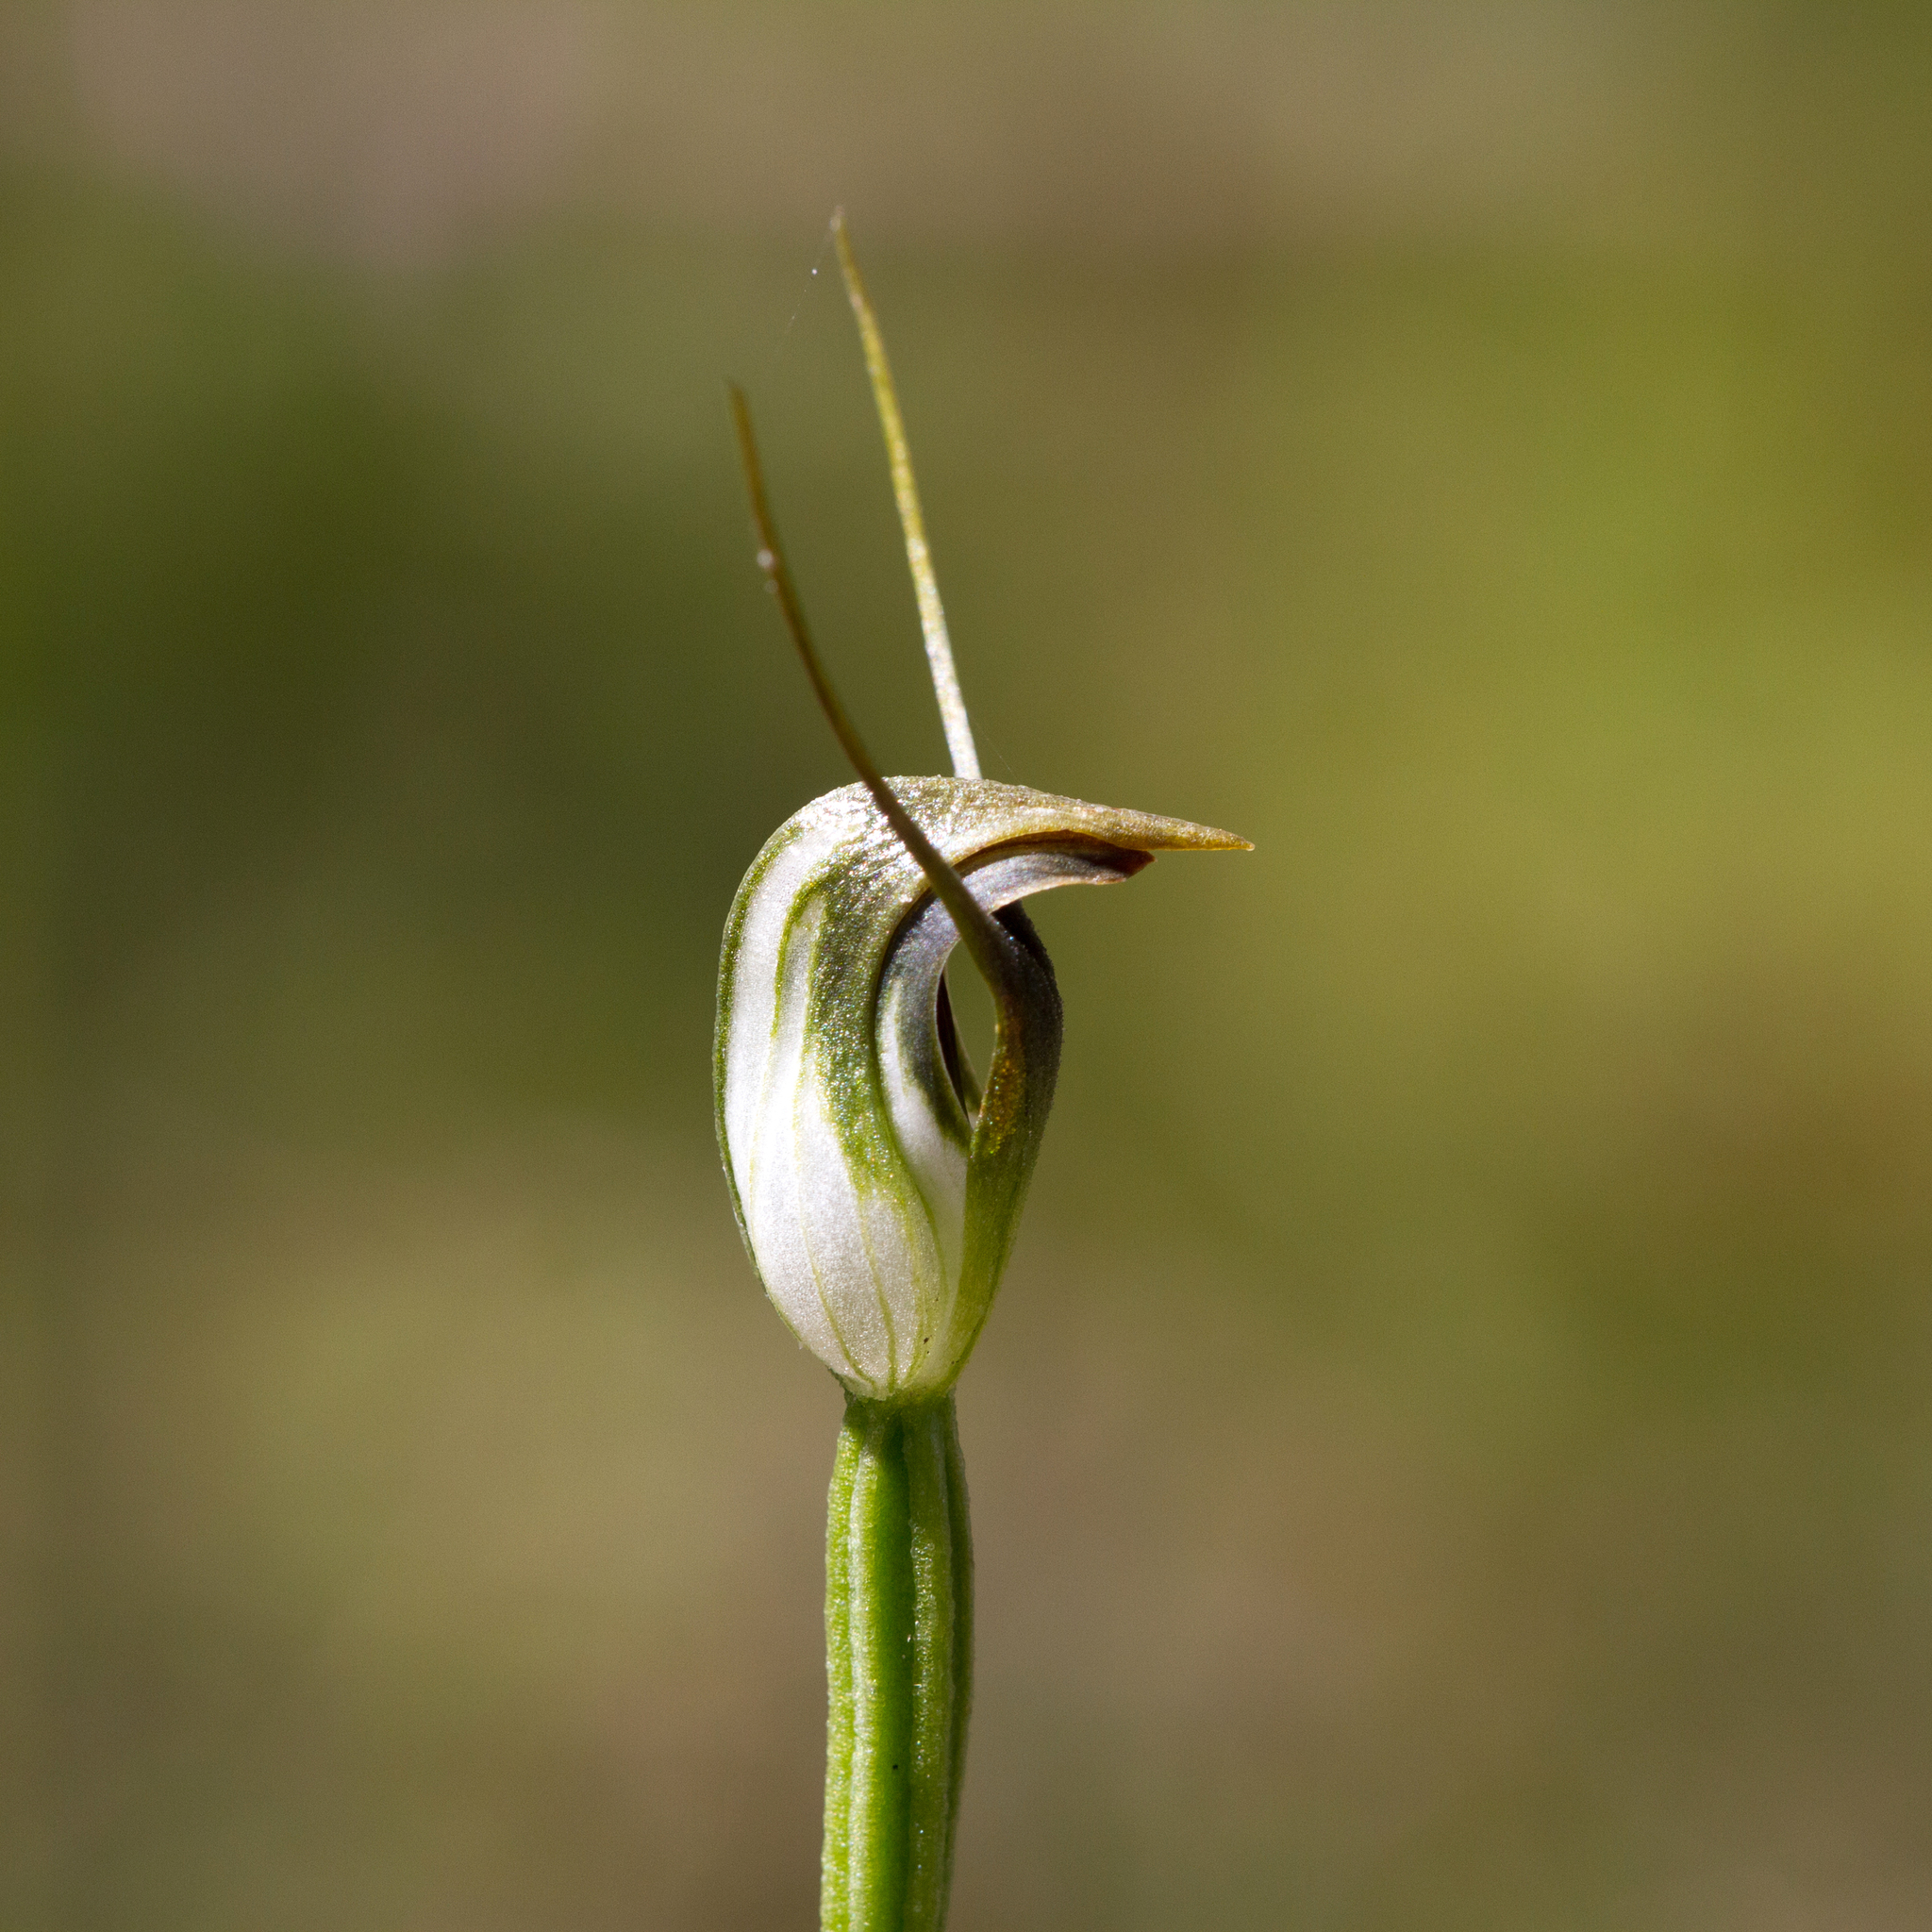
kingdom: Plantae
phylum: Tracheophyta
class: Liliopsida
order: Asparagales
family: Orchidaceae
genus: Pterostylis
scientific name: Pterostylis pedunculata
